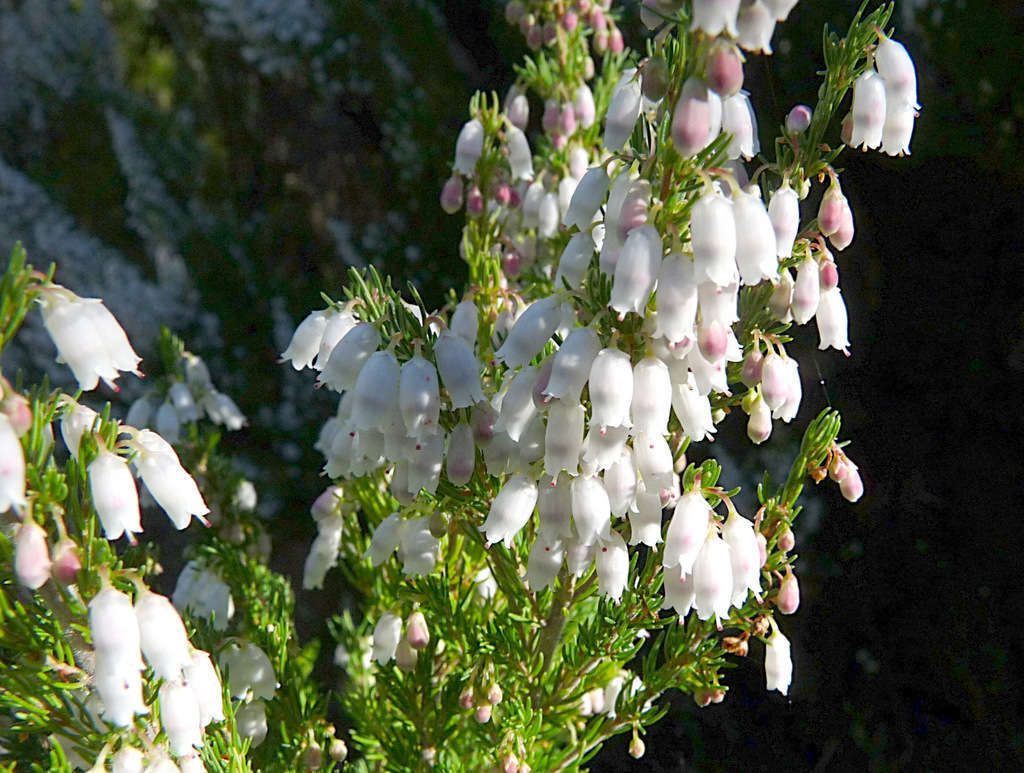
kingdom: Plantae
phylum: Tracheophyta
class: Magnoliopsida
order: Ericales
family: Ericaceae
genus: Erica
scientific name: Erica lusitanica
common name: Spanish heath
